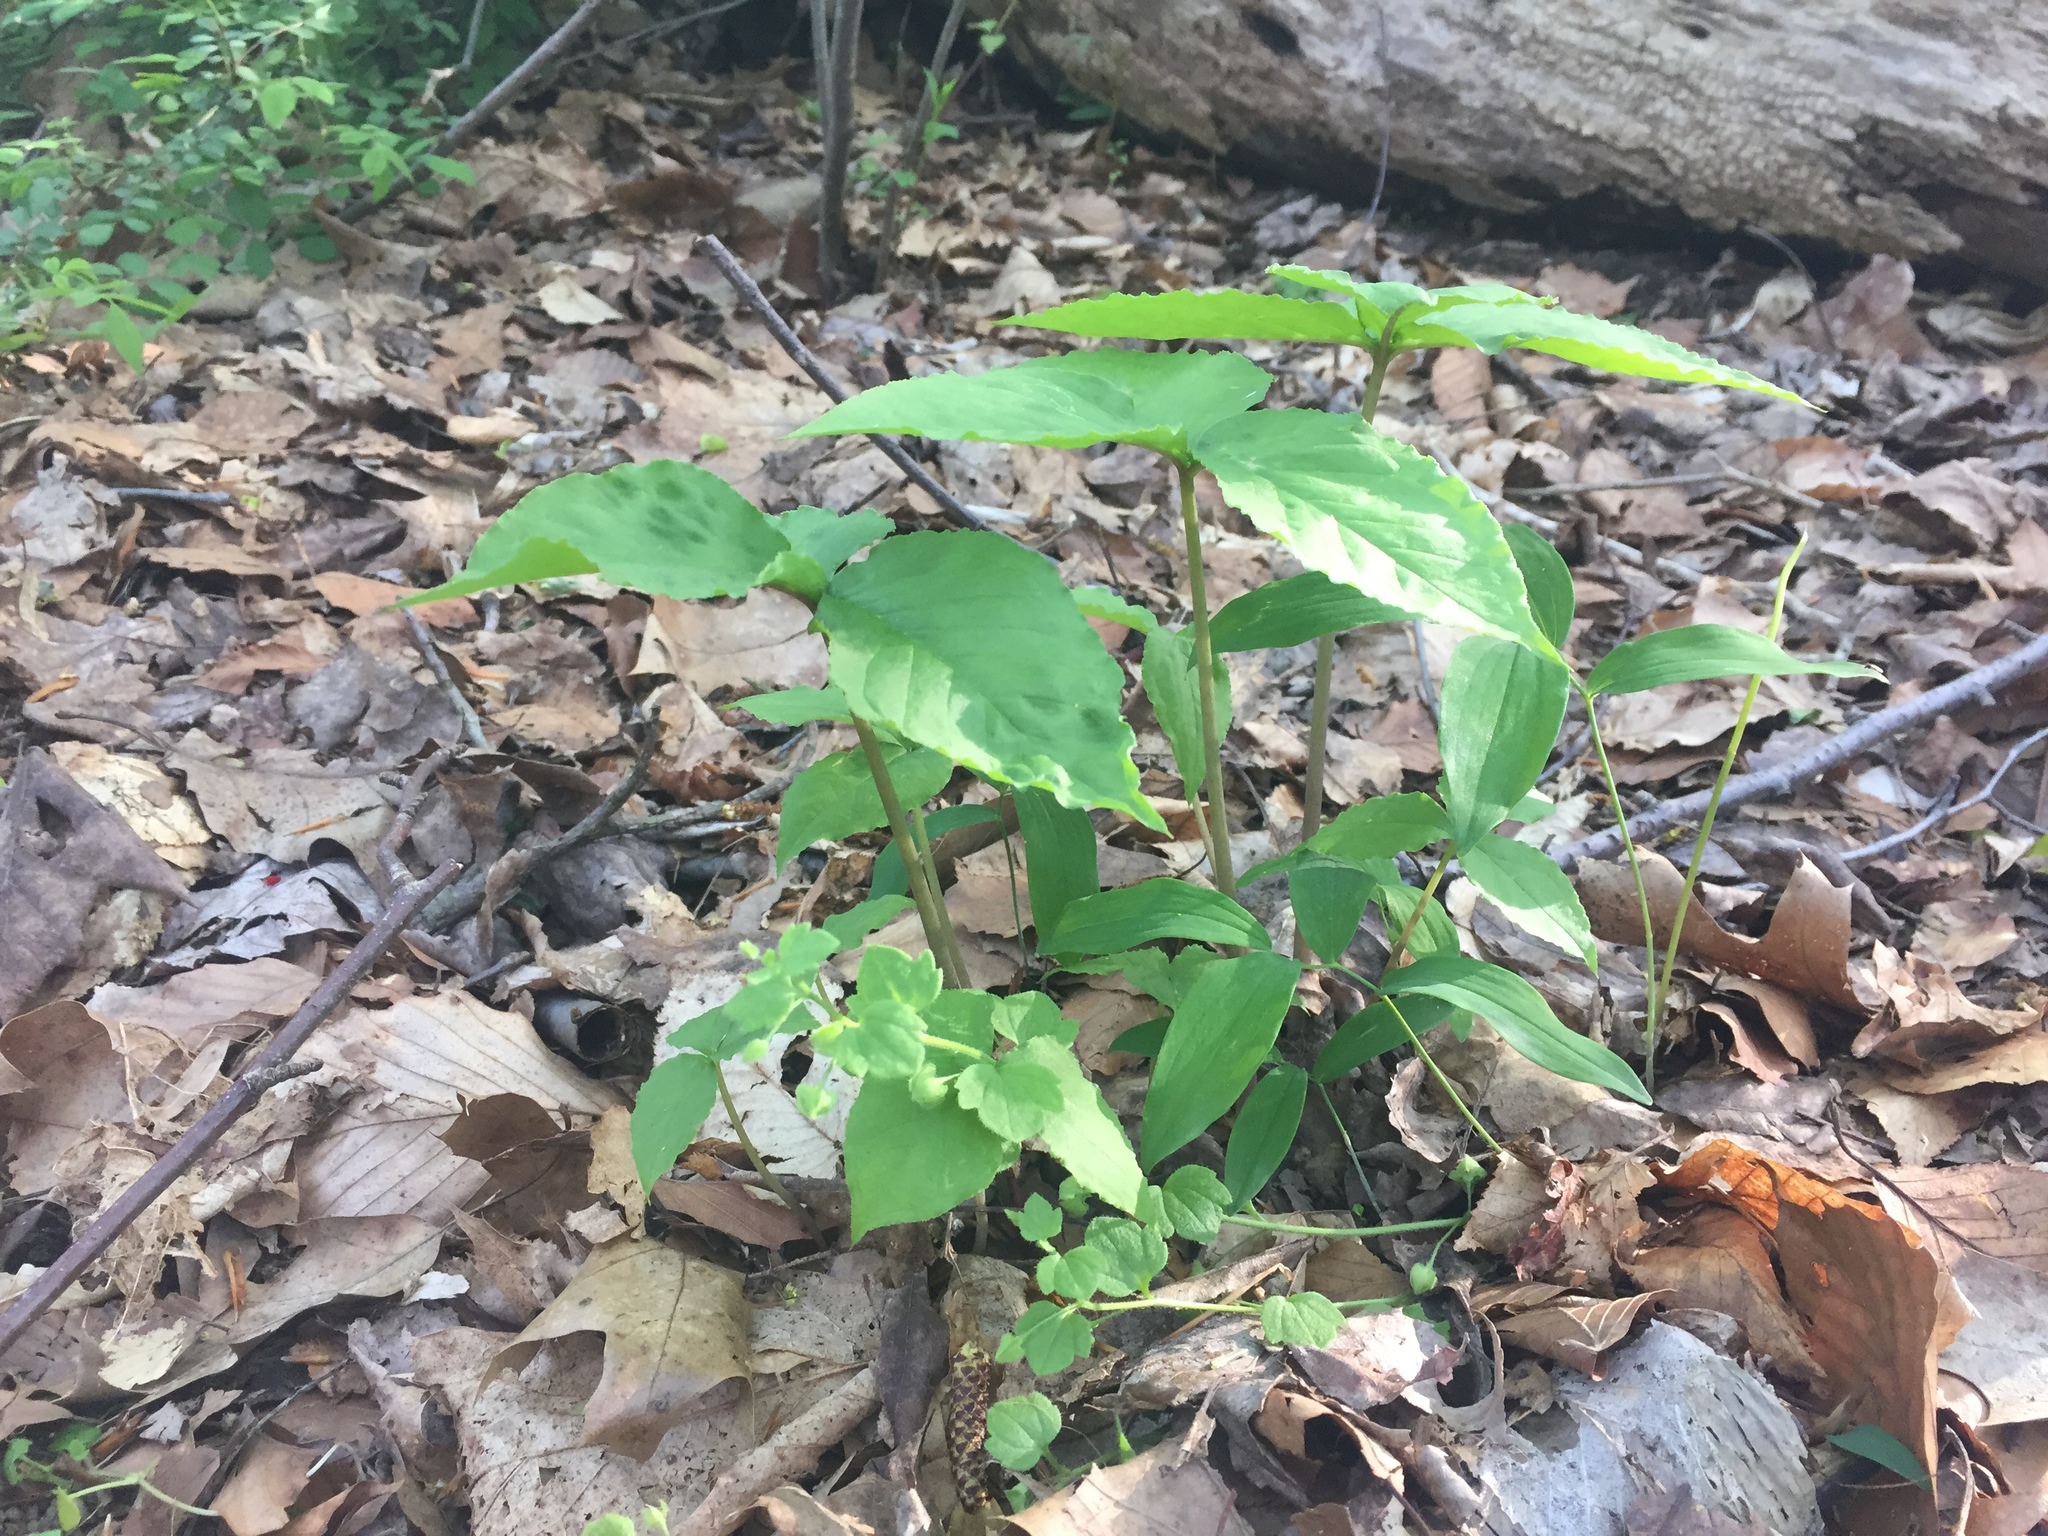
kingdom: Plantae
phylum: Tracheophyta
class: Liliopsida
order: Alismatales
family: Araceae
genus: Arisaema
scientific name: Arisaema triphyllum
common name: Jack-in-the-pulpit
